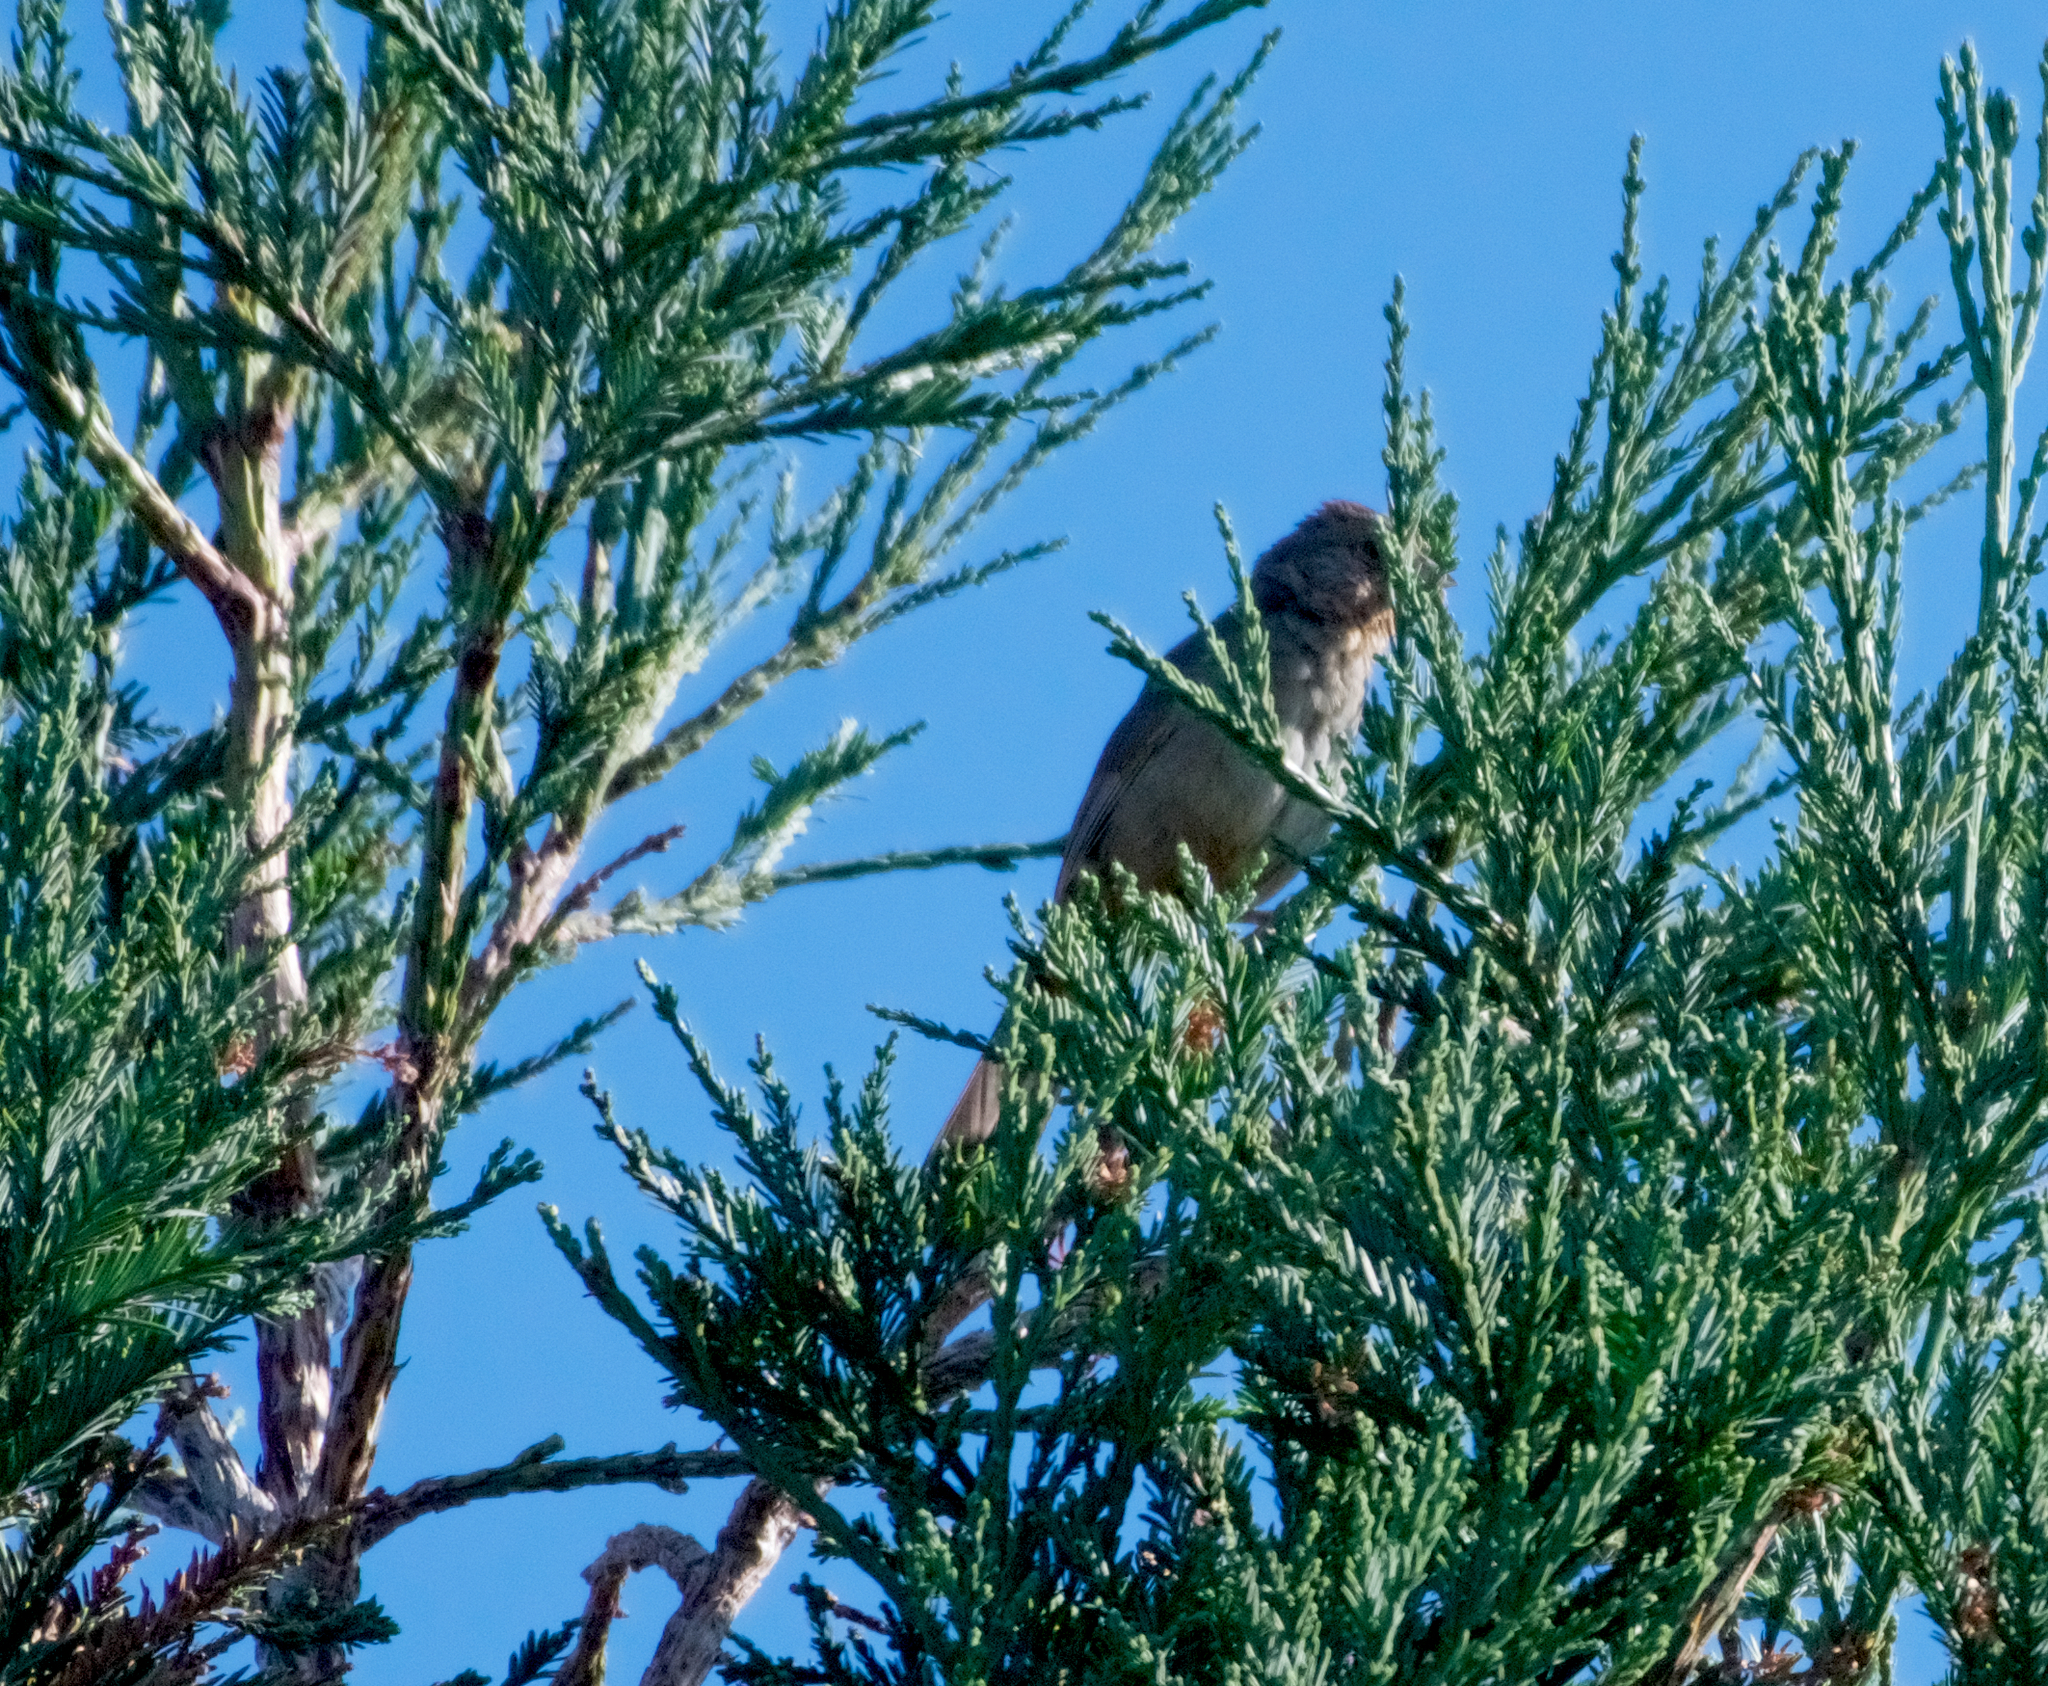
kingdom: Animalia
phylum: Chordata
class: Aves
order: Passeriformes
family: Passerellidae
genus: Melozone
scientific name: Melozone crissalis
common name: California towhee
